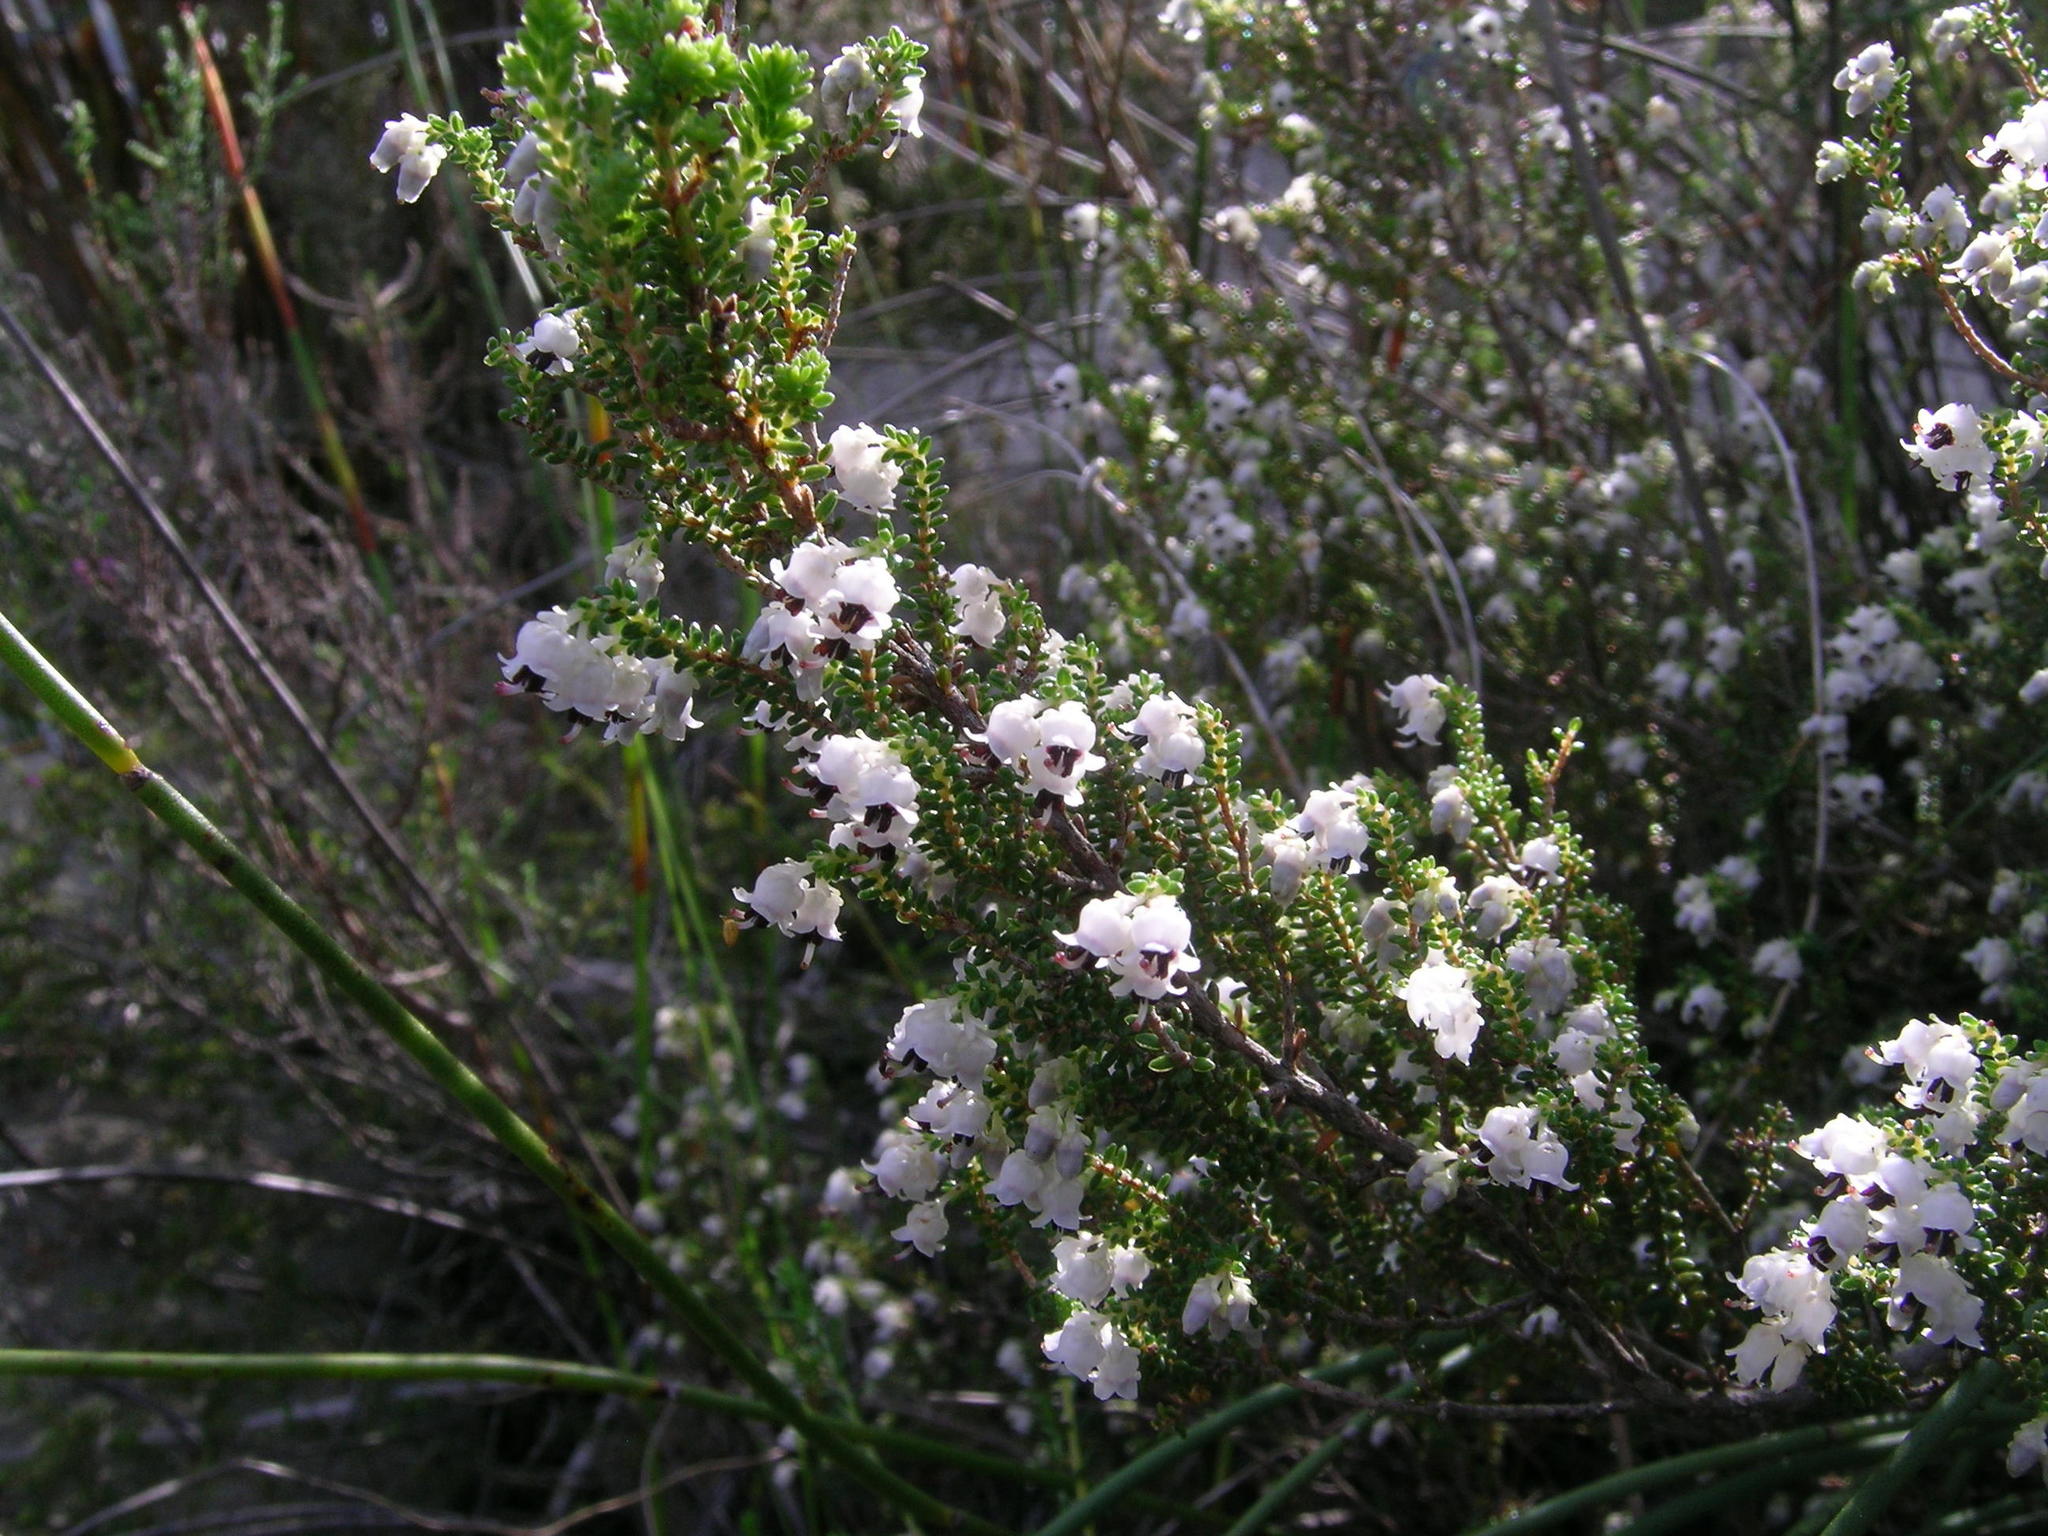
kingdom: Plantae
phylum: Tracheophyta
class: Magnoliopsida
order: Ericales
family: Ericaceae
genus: Erica
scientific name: Erica triceps
